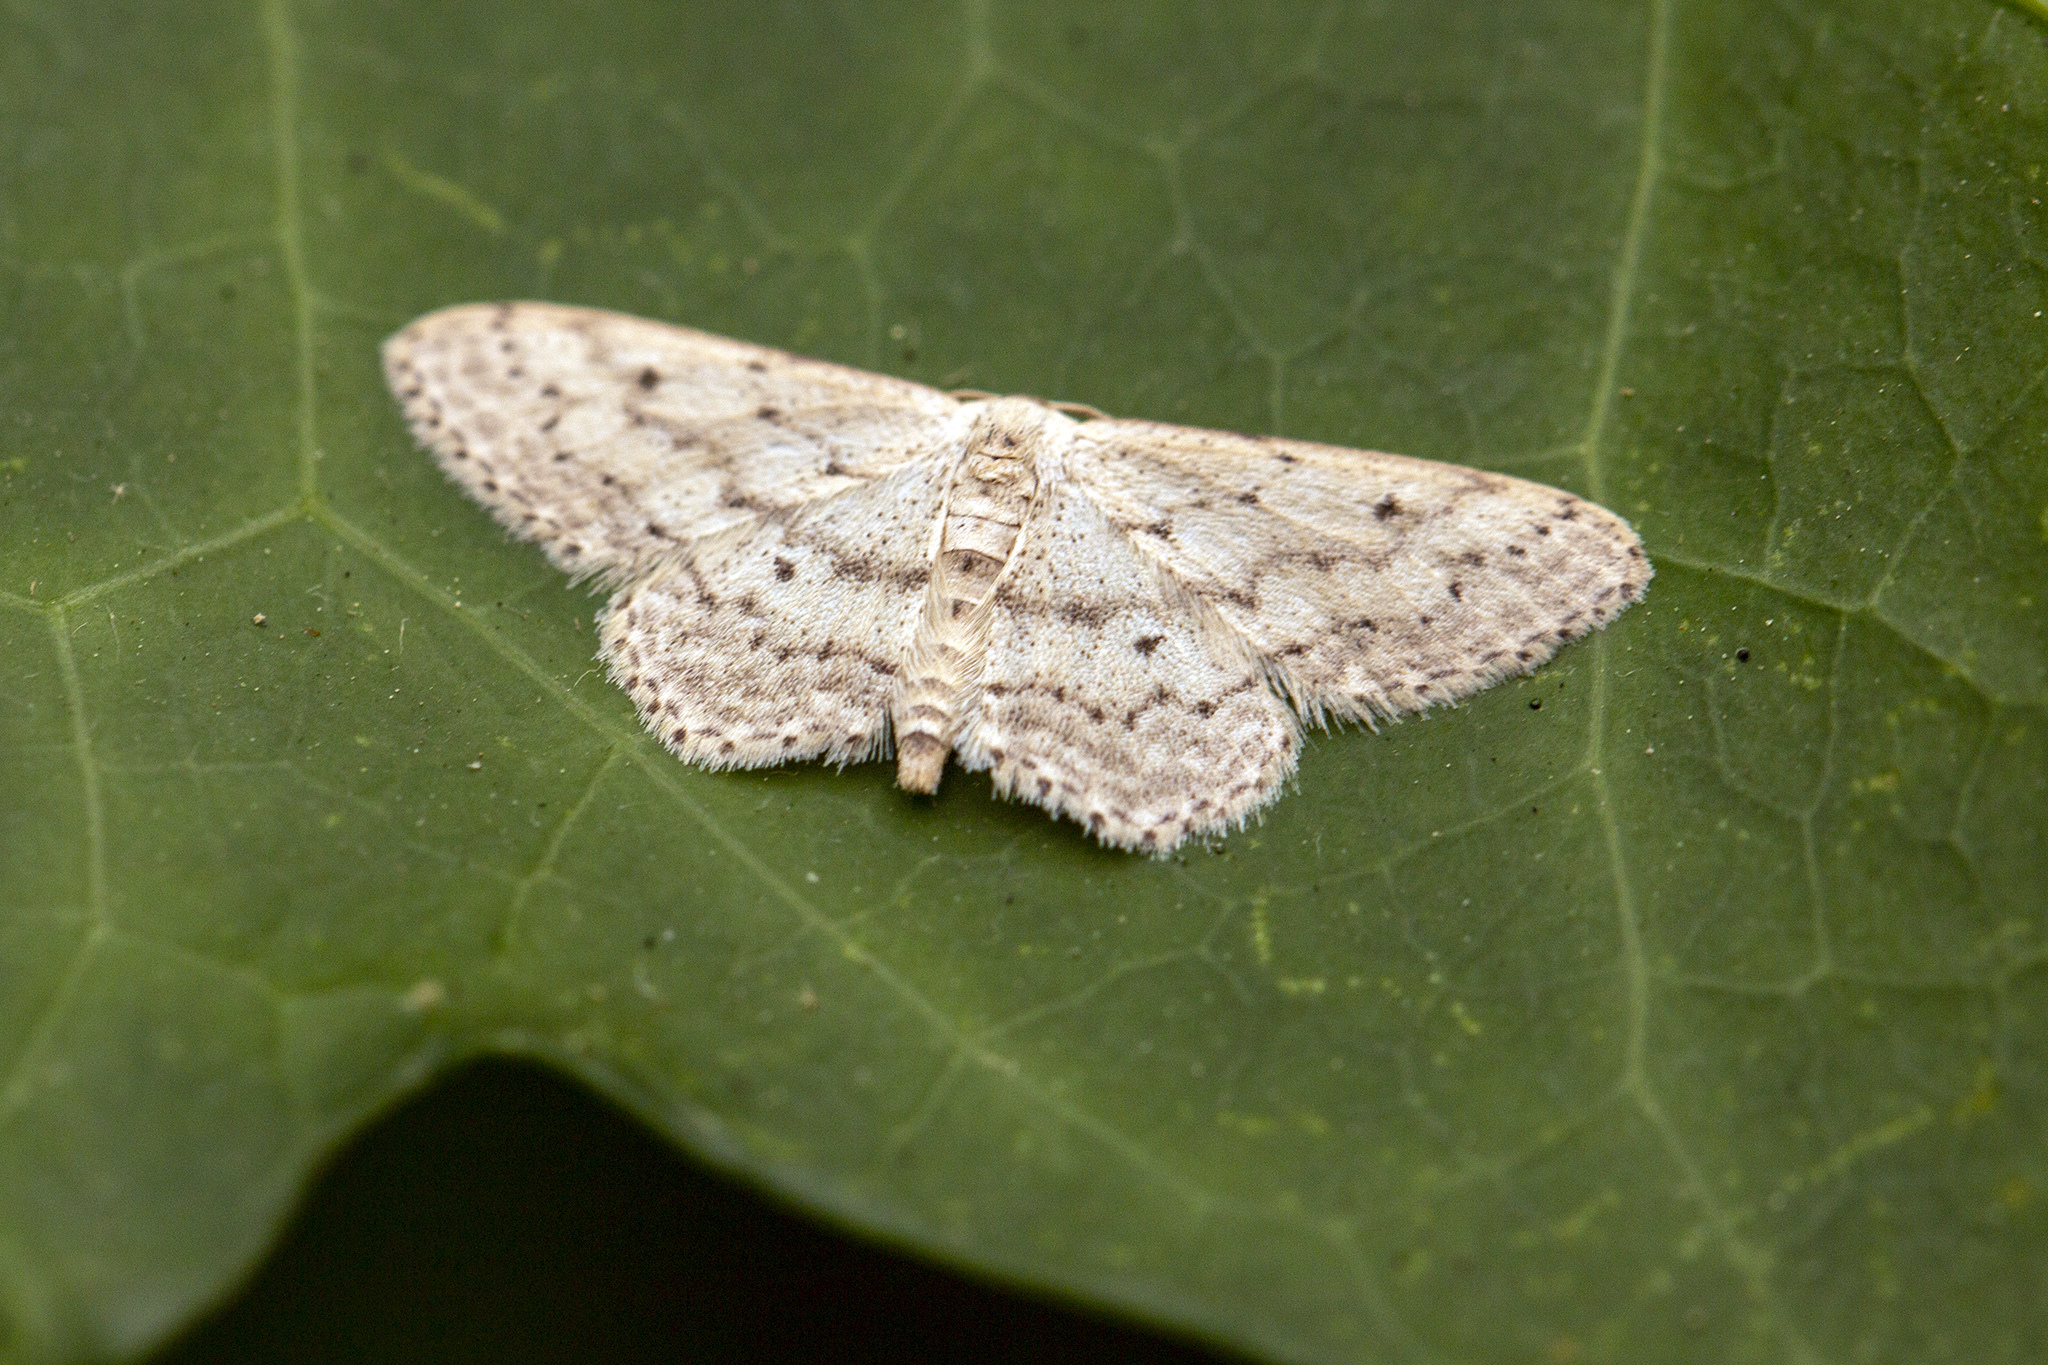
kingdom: Animalia
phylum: Arthropoda
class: Insecta
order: Lepidoptera
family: Geometridae
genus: Idaea
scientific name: Idaea seriata
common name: Small dusty wave
